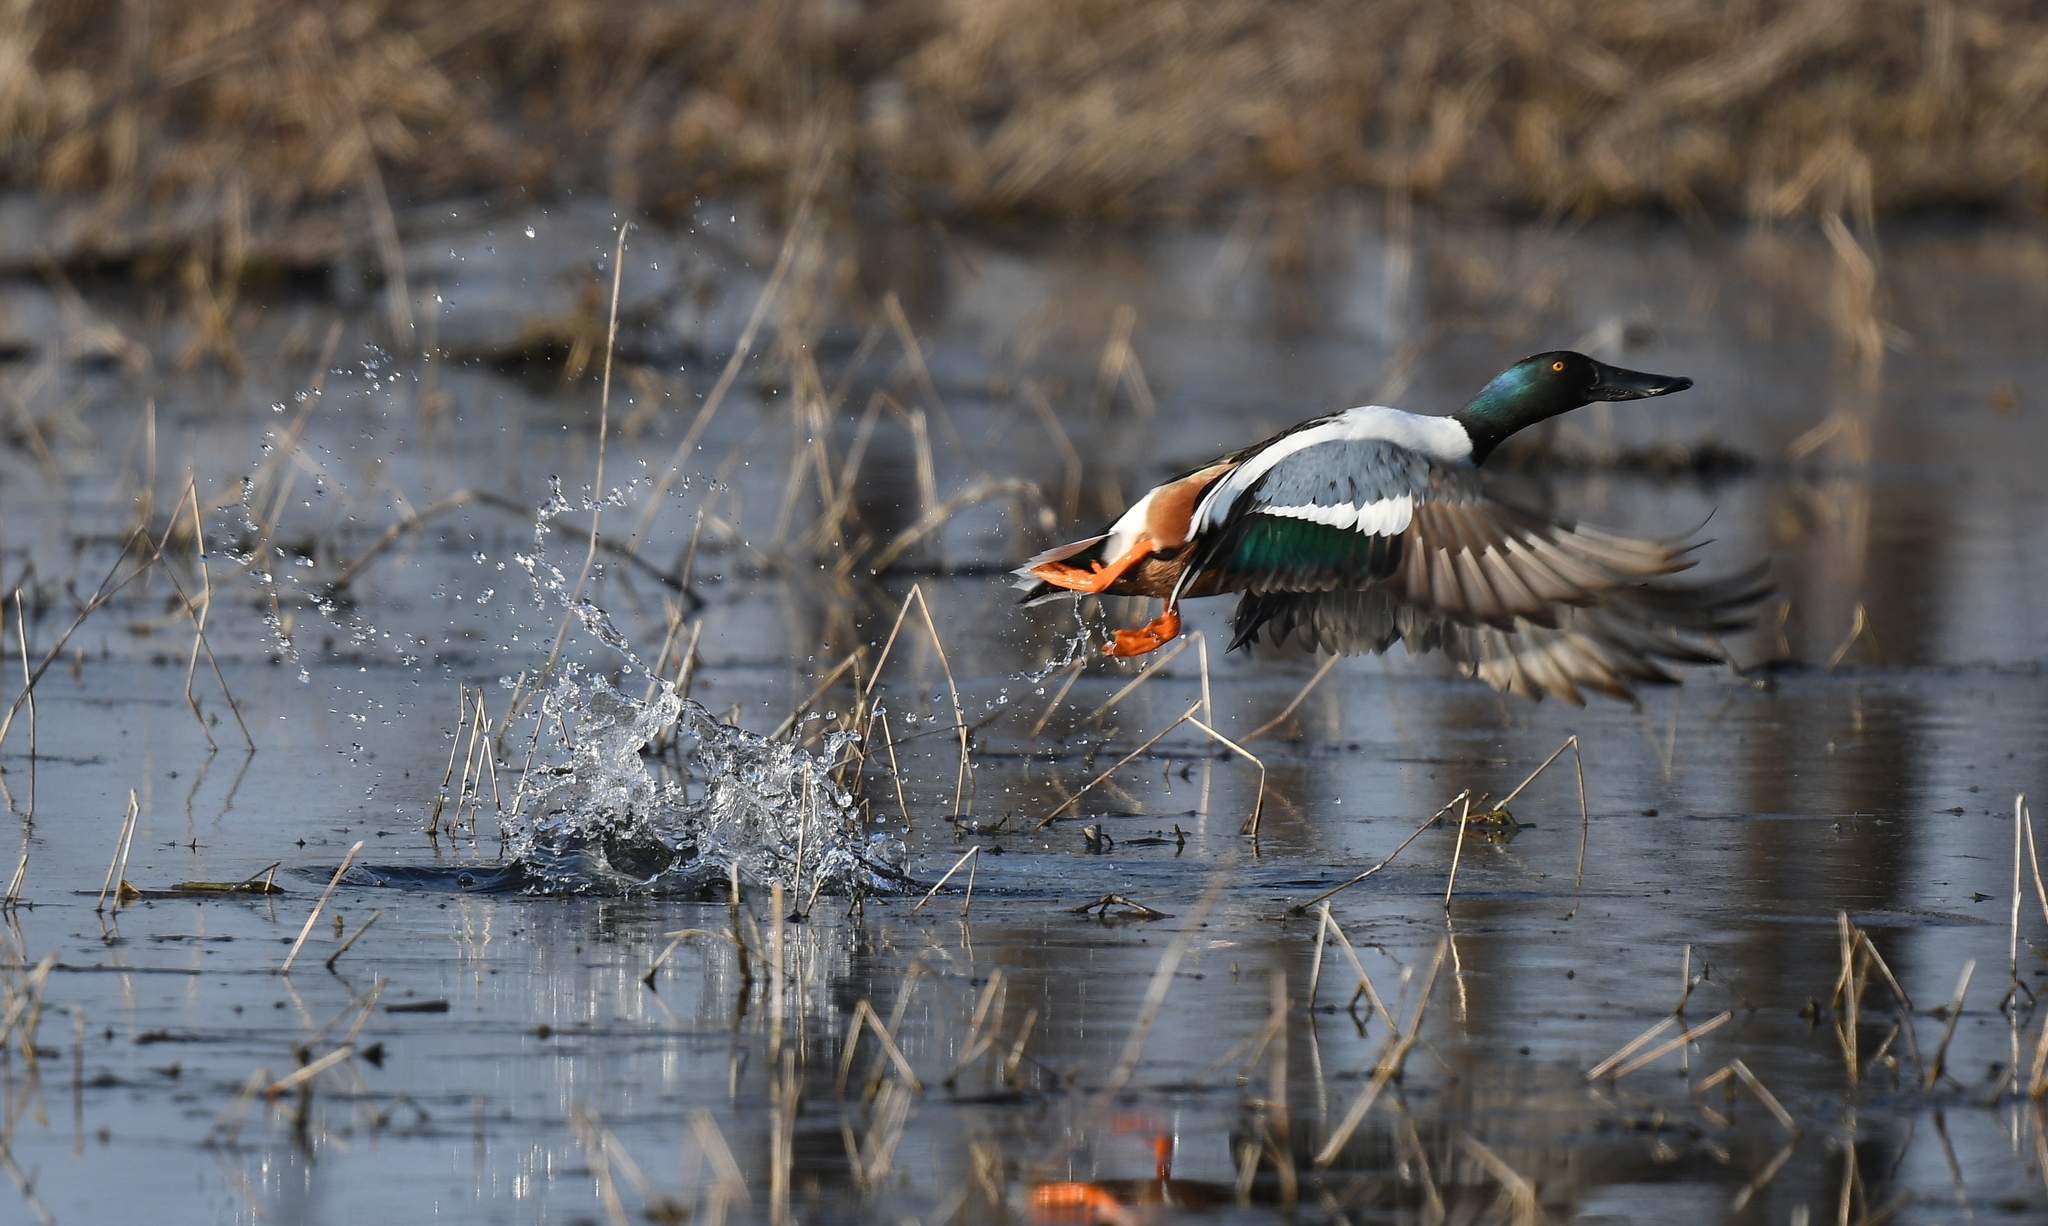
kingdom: Animalia
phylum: Chordata
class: Aves
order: Anseriformes
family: Anatidae
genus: Spatula
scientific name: Spatula clypeata
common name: Northern shoveler
